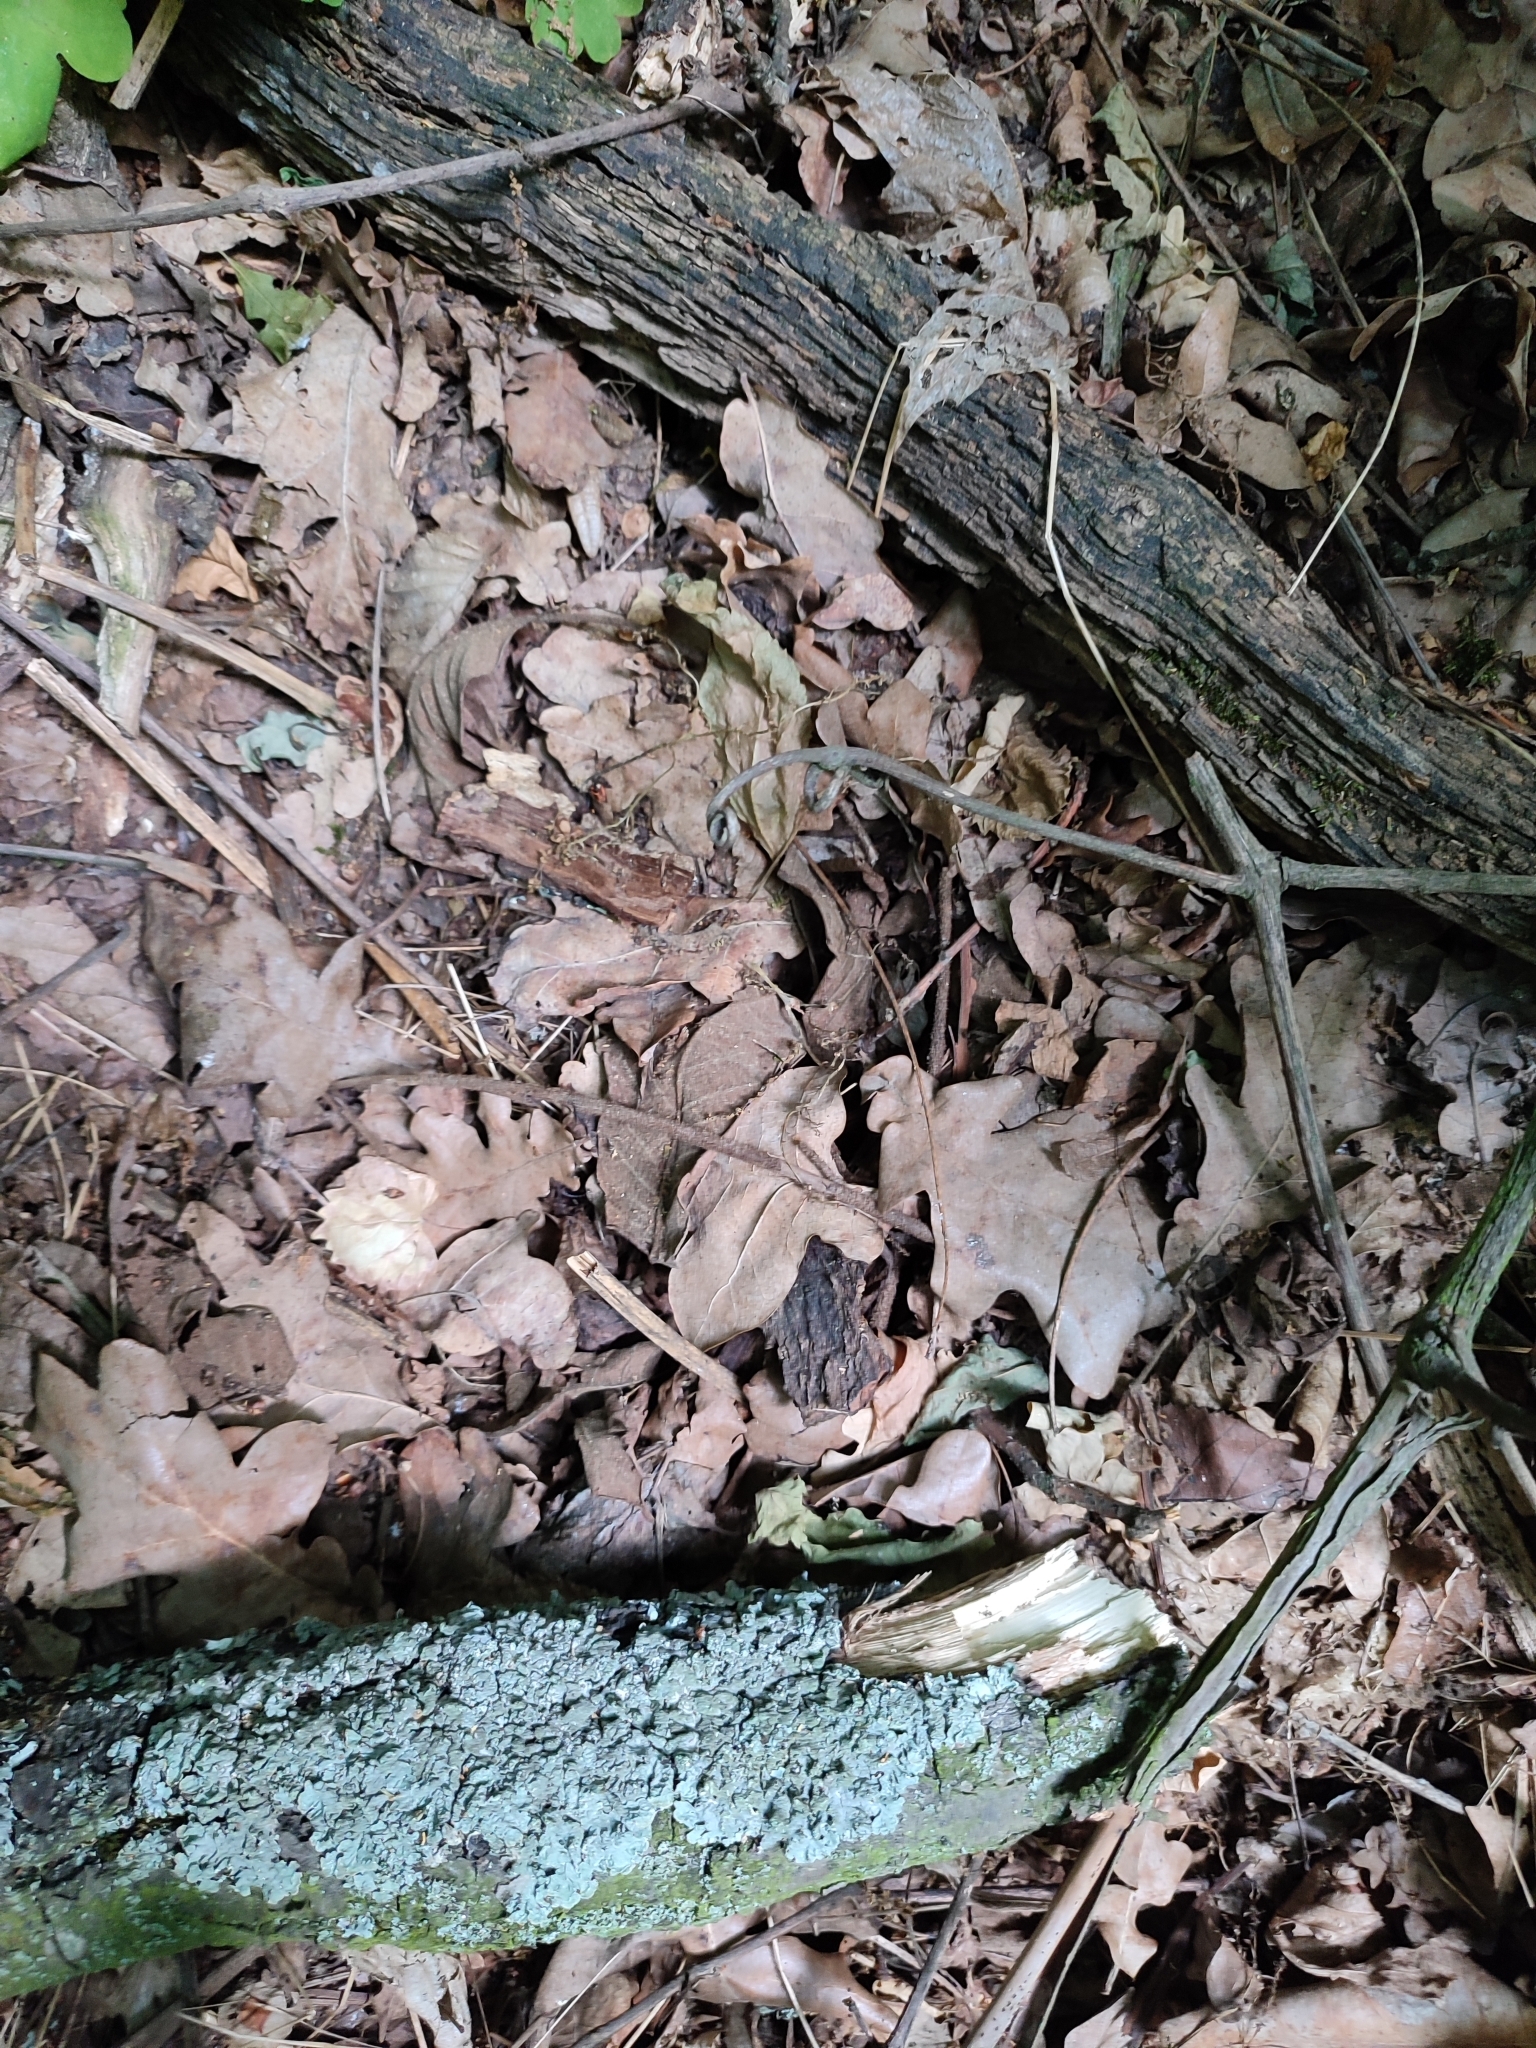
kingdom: Plantae
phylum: Tracheophyta
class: Magnoliopsida
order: Fagales
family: Fagaceae
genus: Quercus
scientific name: Quercus robur
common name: Pedunculate oak
